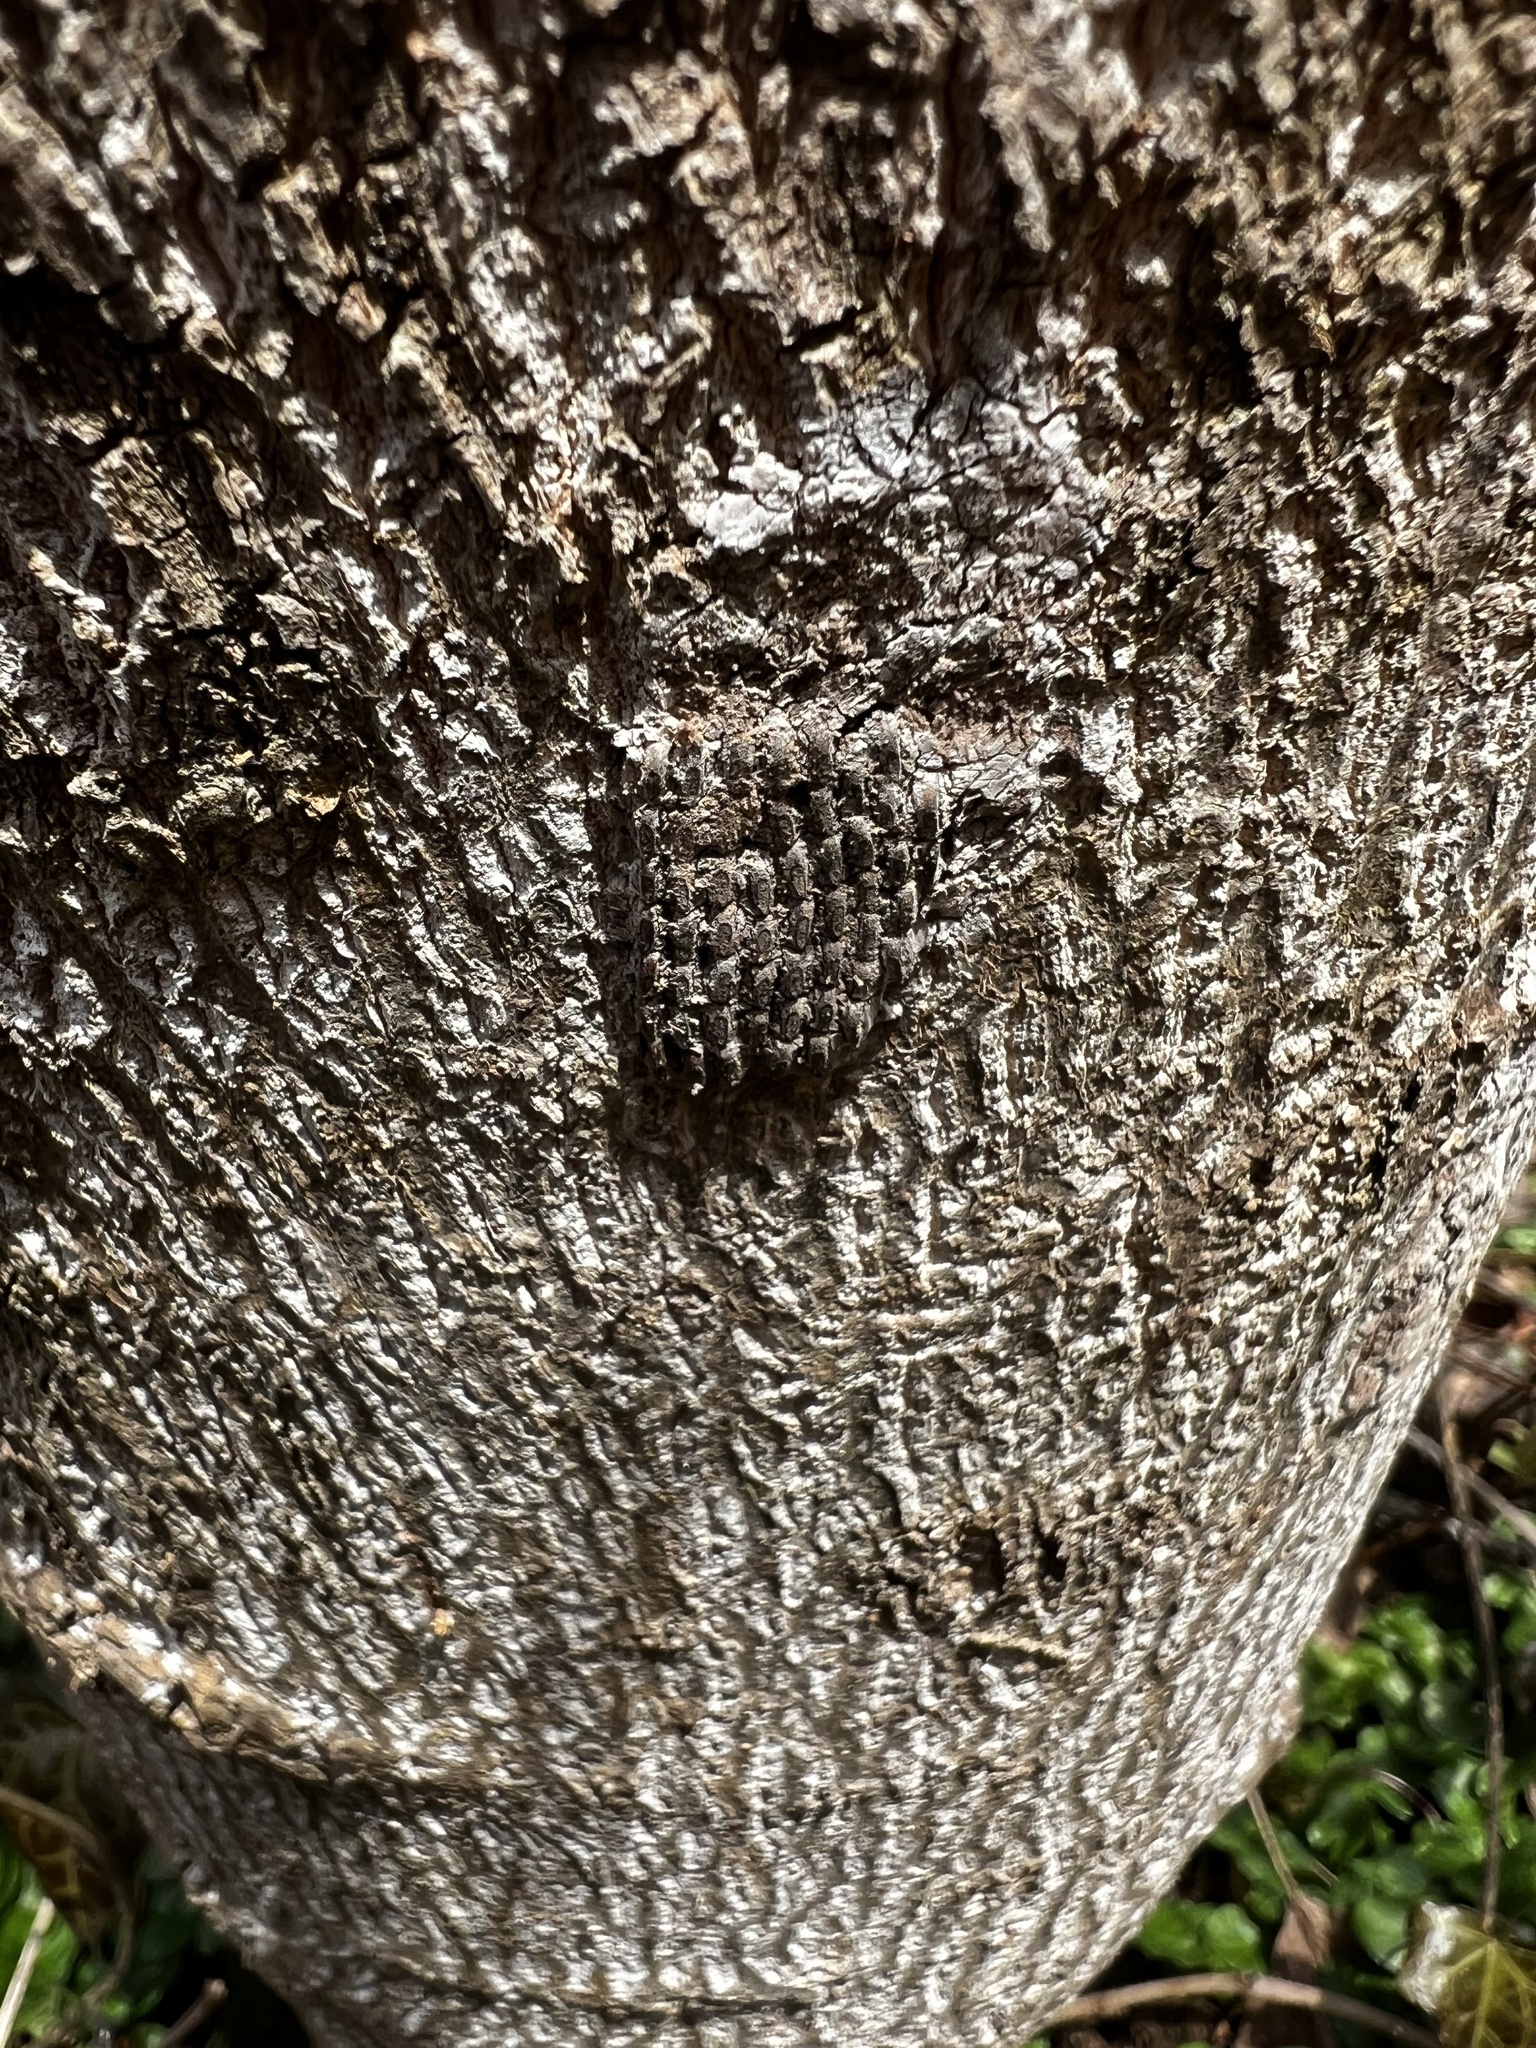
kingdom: Animalia
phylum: Arthropoda
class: Insecta
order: Hemiptera
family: Fulgoridae
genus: Lycorma
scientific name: Lycorma delicatula
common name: Spotted lanternfly
